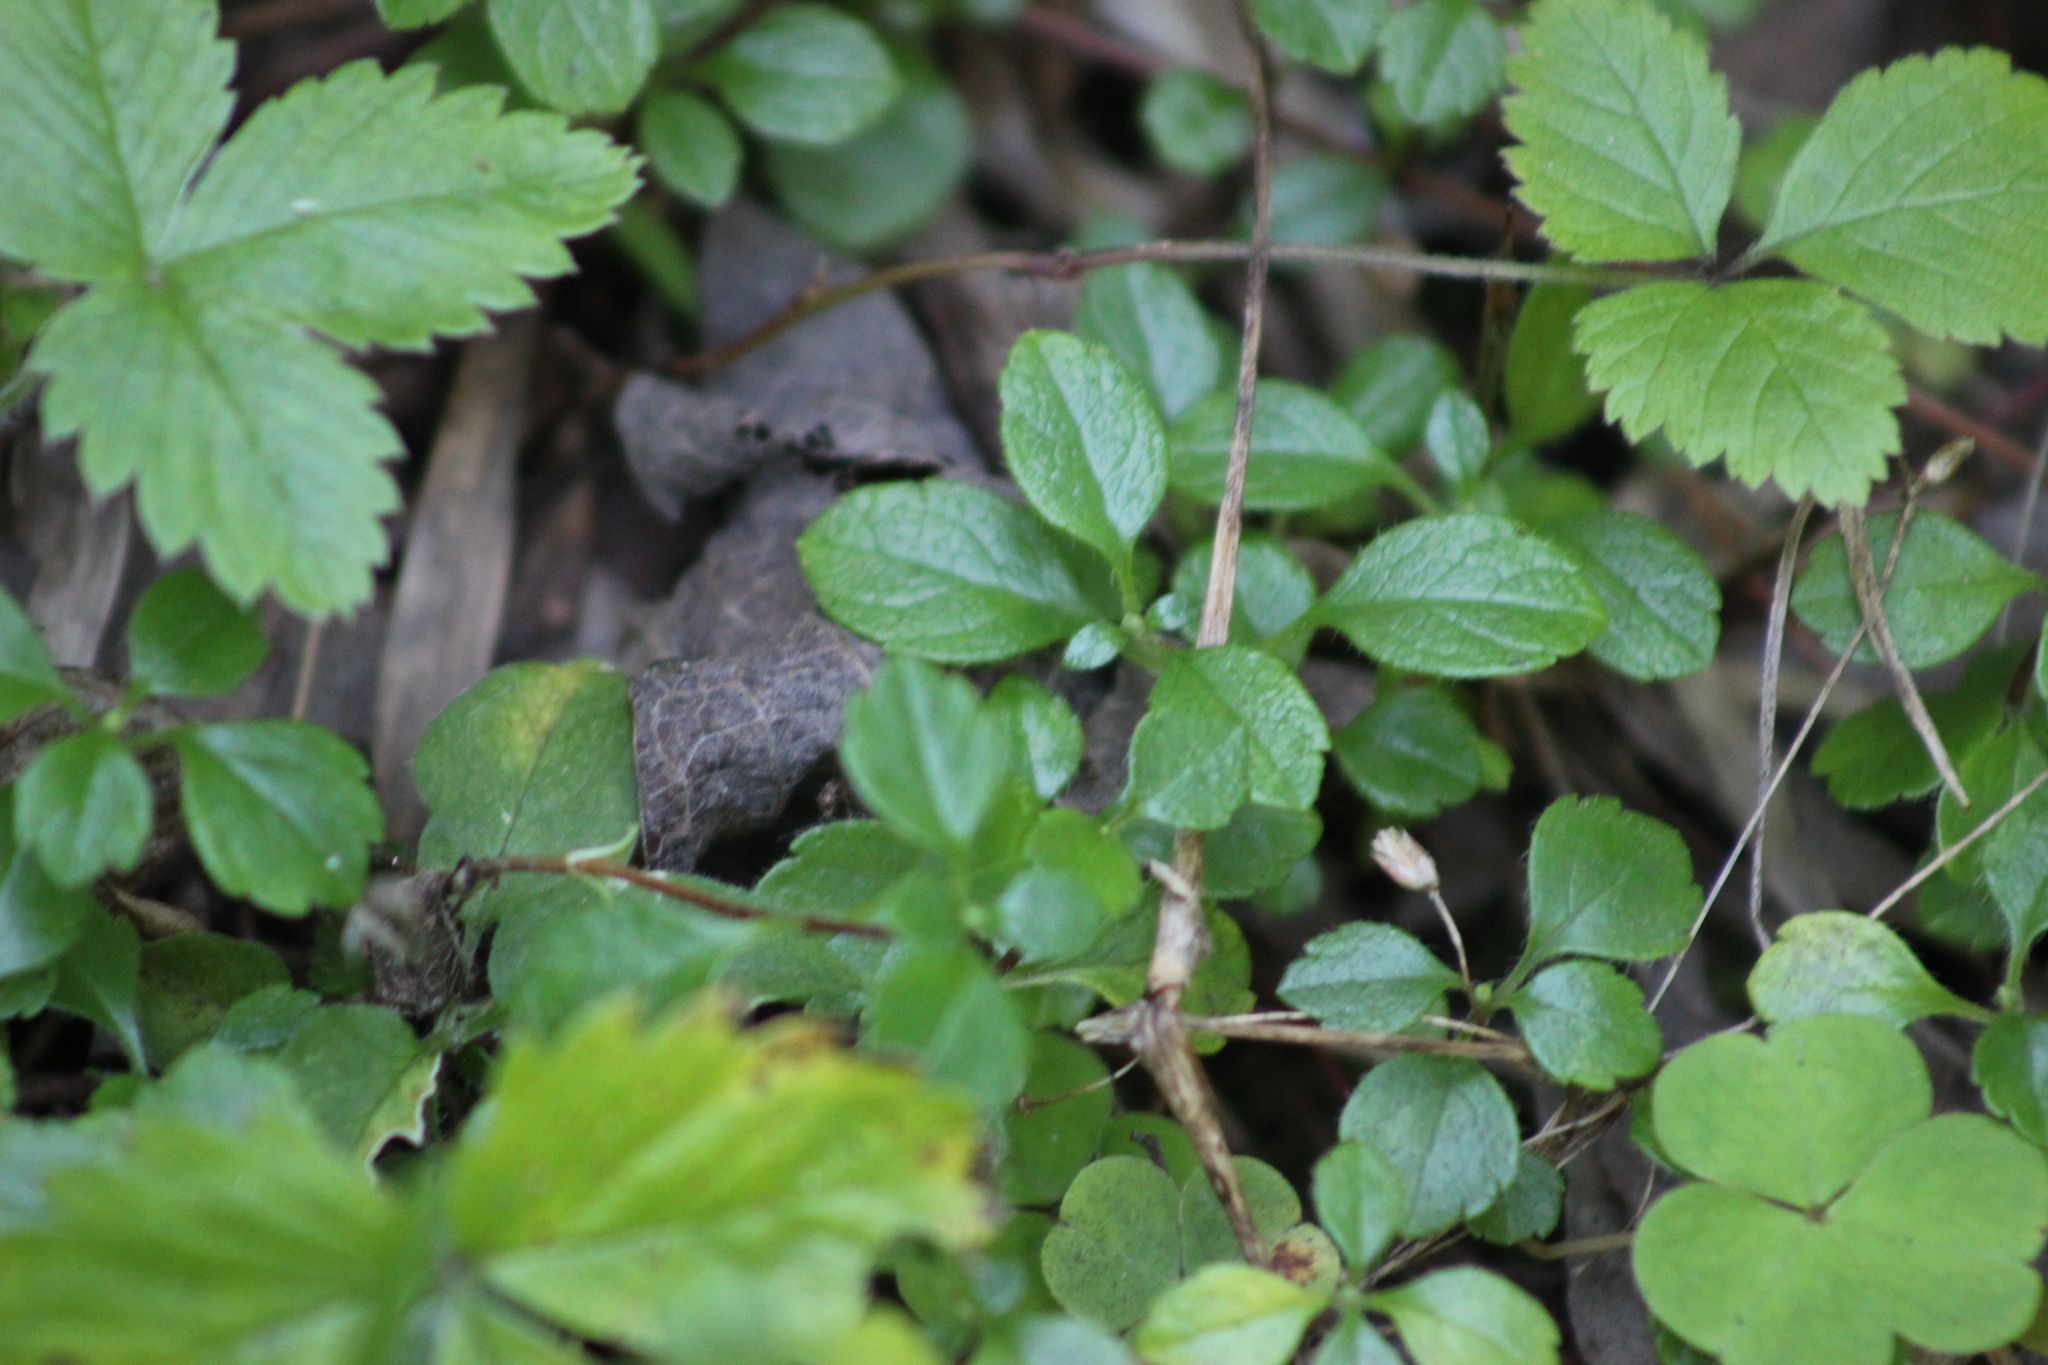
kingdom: Plantae
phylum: Tracheophyta
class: Magnoliopsida
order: Dipsacales
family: Caprifoliaceae
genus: Linnaea
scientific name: Linnaea borealis
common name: Twinflower
